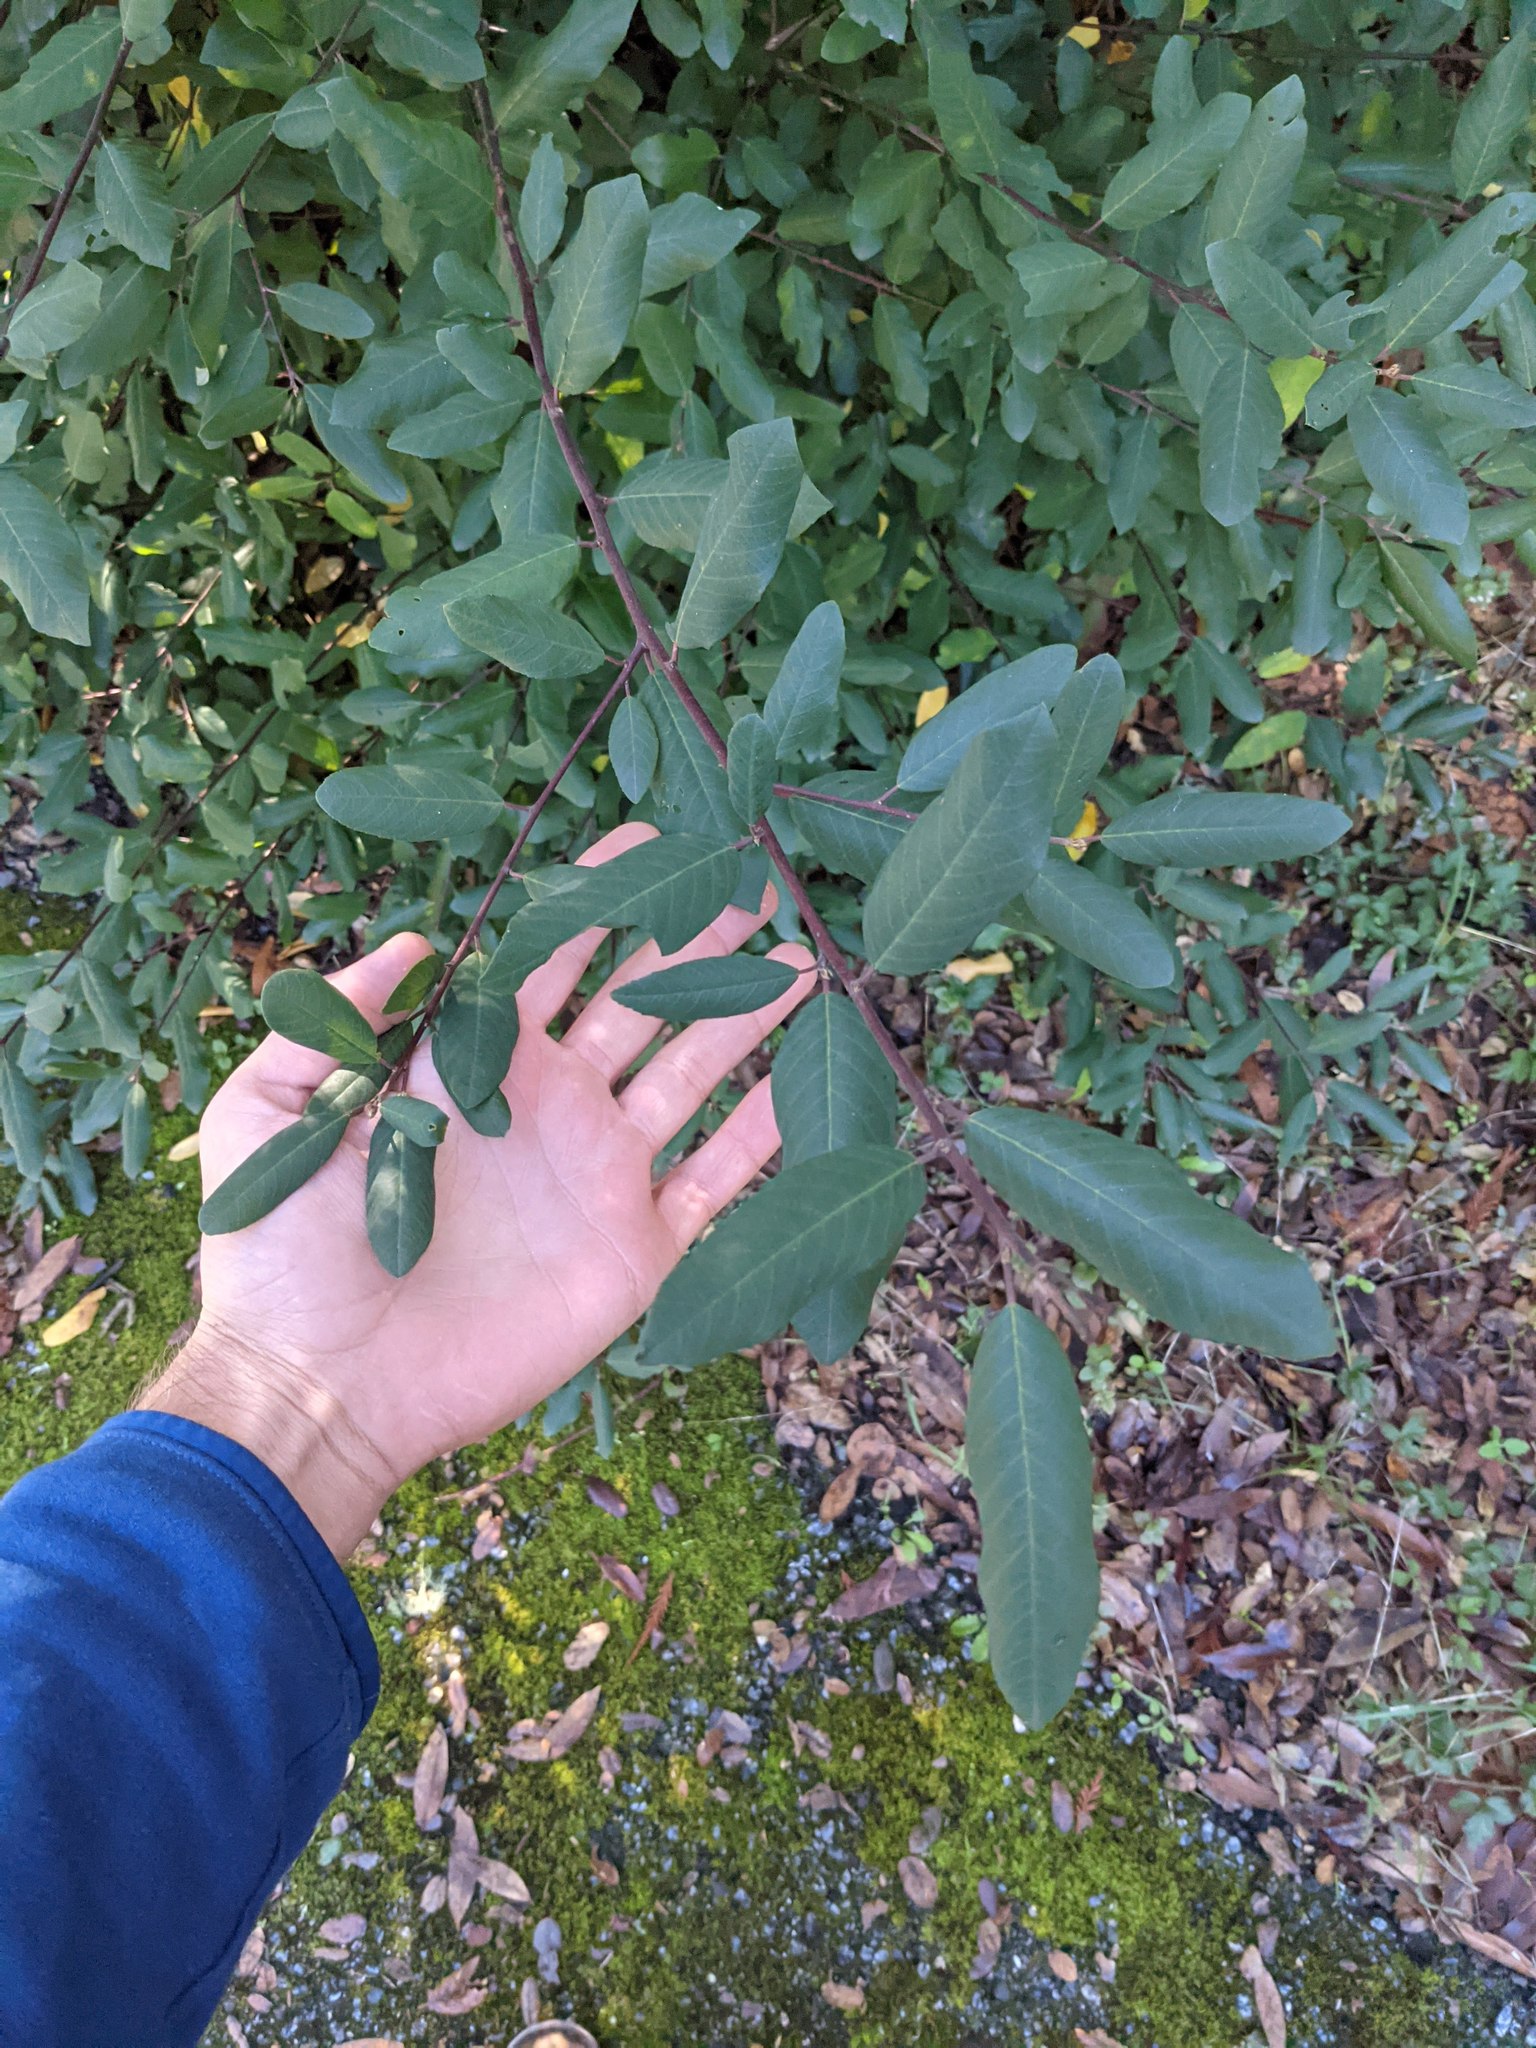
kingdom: Plantae
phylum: Tracheophyta
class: Magnoliopsida
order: Rosales
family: Rhamnaceae
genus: Frangula
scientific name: Frangula californica
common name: California buckthorn
